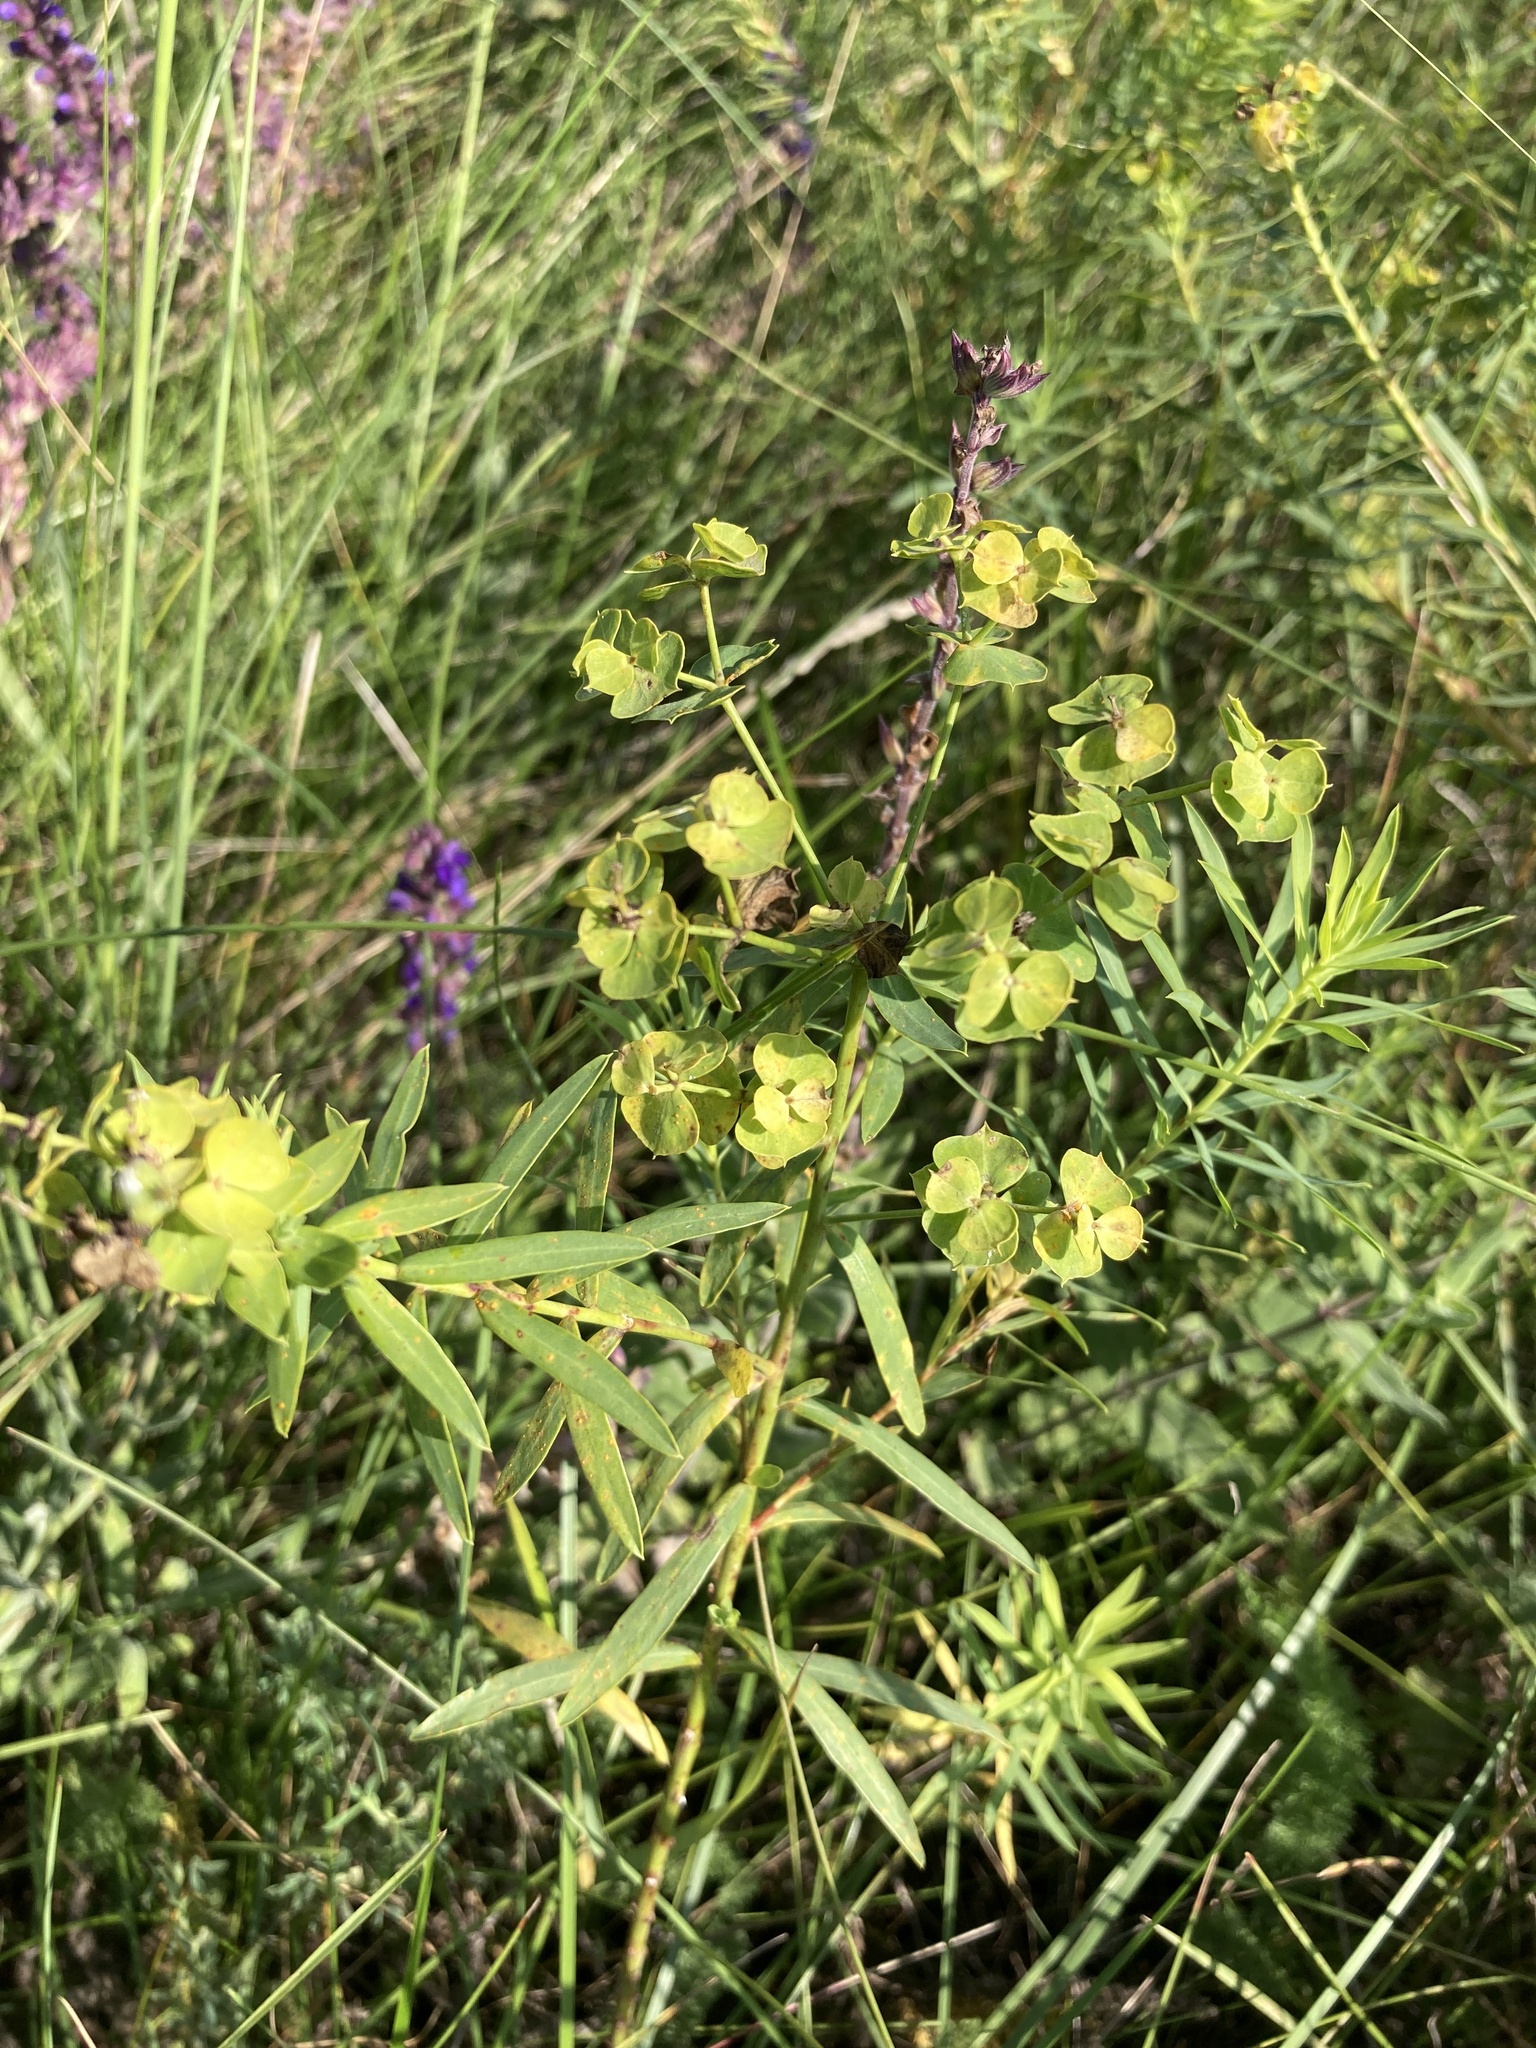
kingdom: Plantae
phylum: Tracheophyta
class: Magnoliopsida
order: Malpighiales
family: Euphorbiaceae
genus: Euphorbia
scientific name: Euphorbia virgata
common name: Leafy spurge
